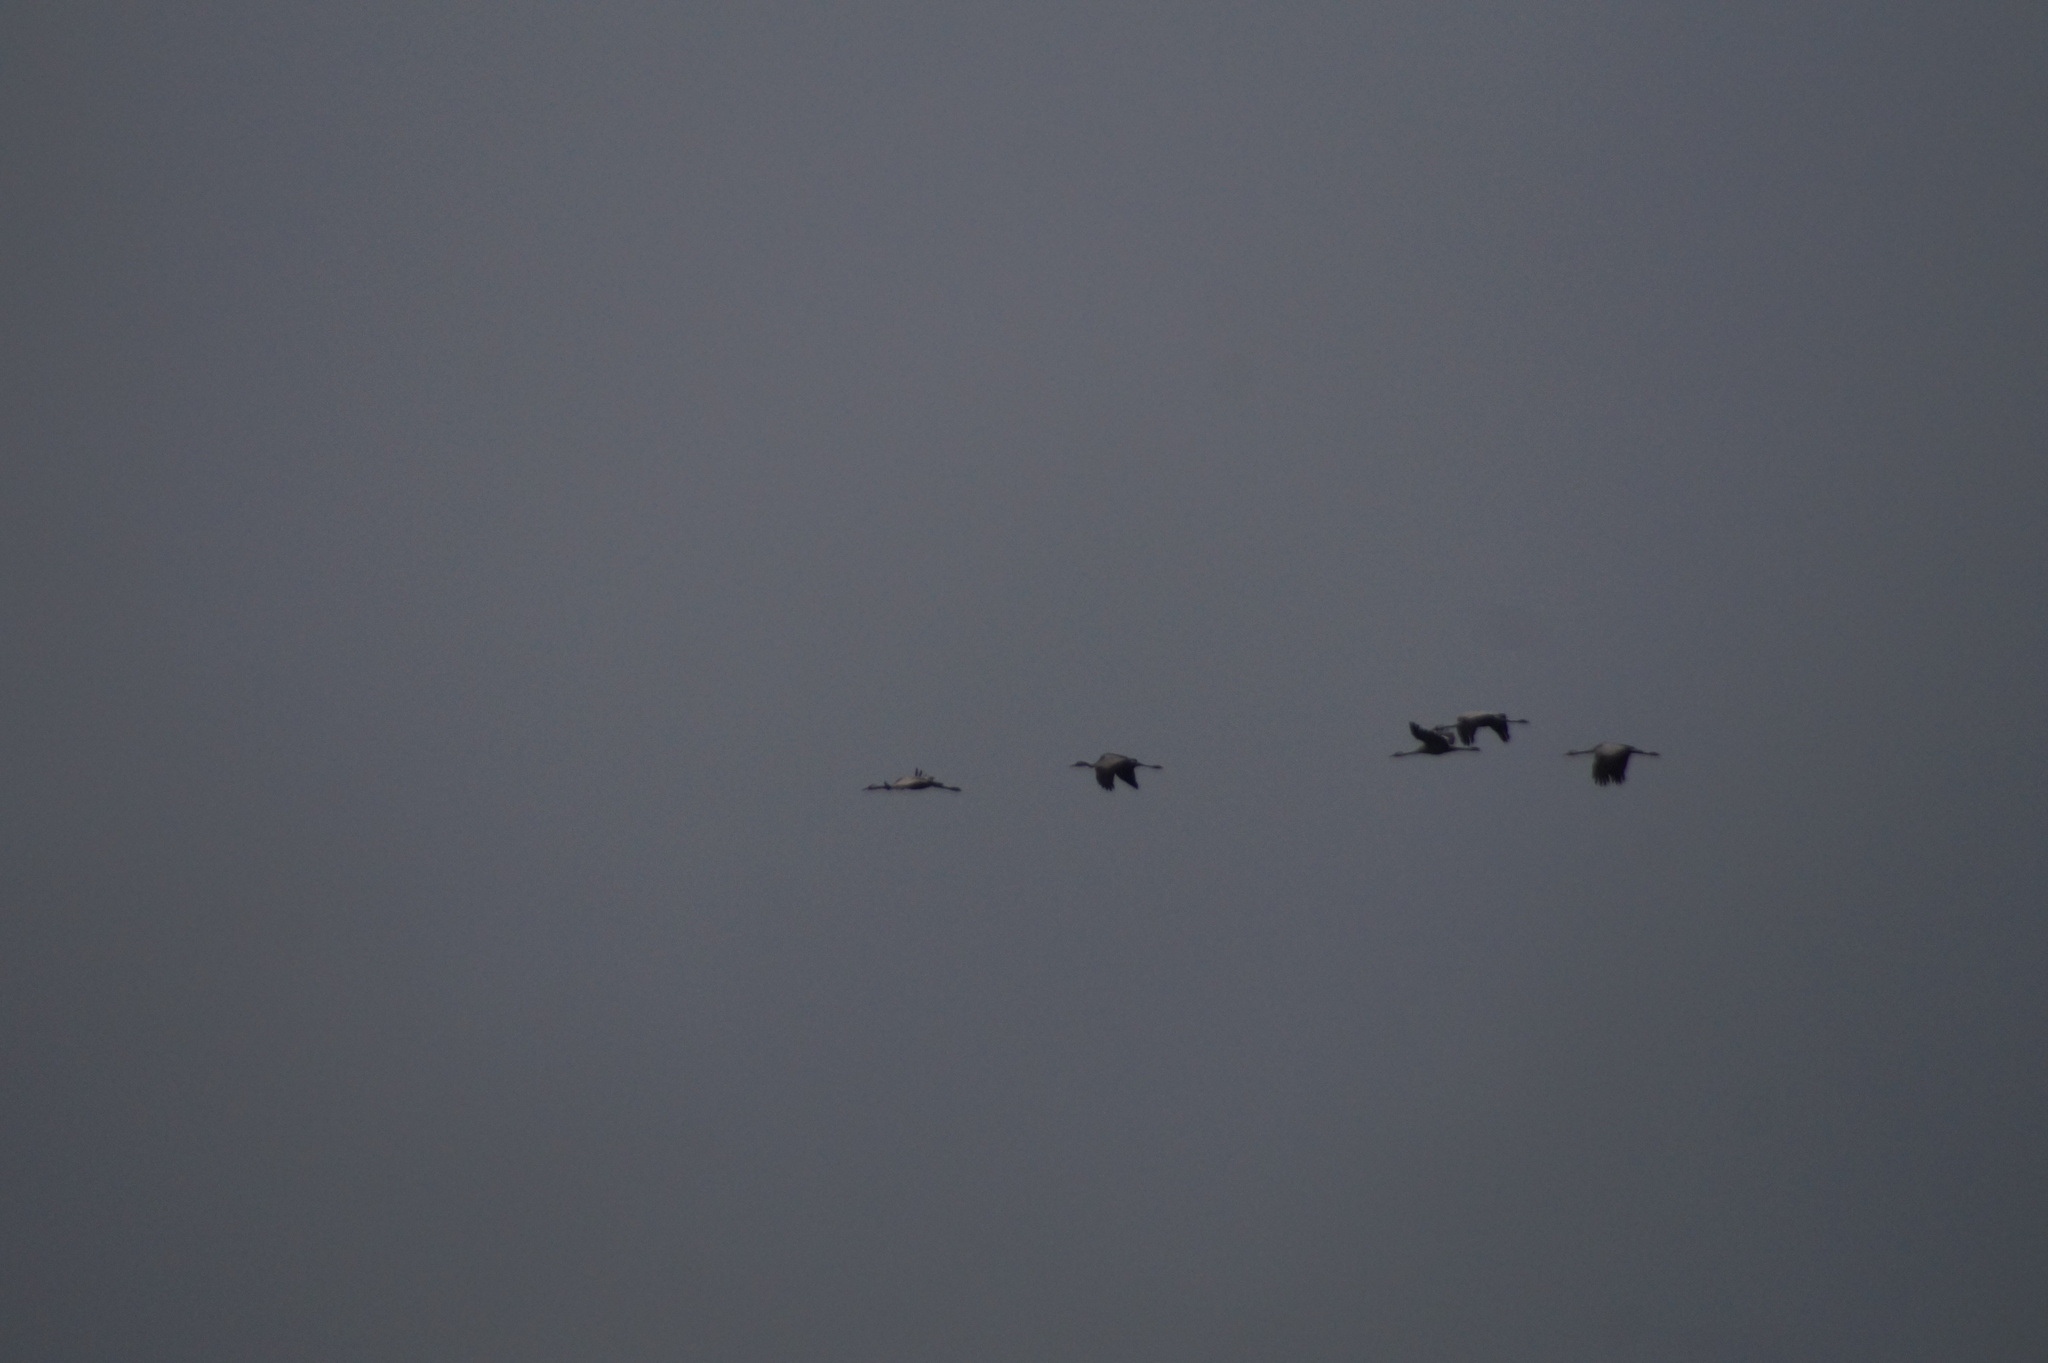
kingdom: Animalia
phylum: Chordata
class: Aves
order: Gruiformes
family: Gruidae
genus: Grus
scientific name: Grus grus
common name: Common crane
